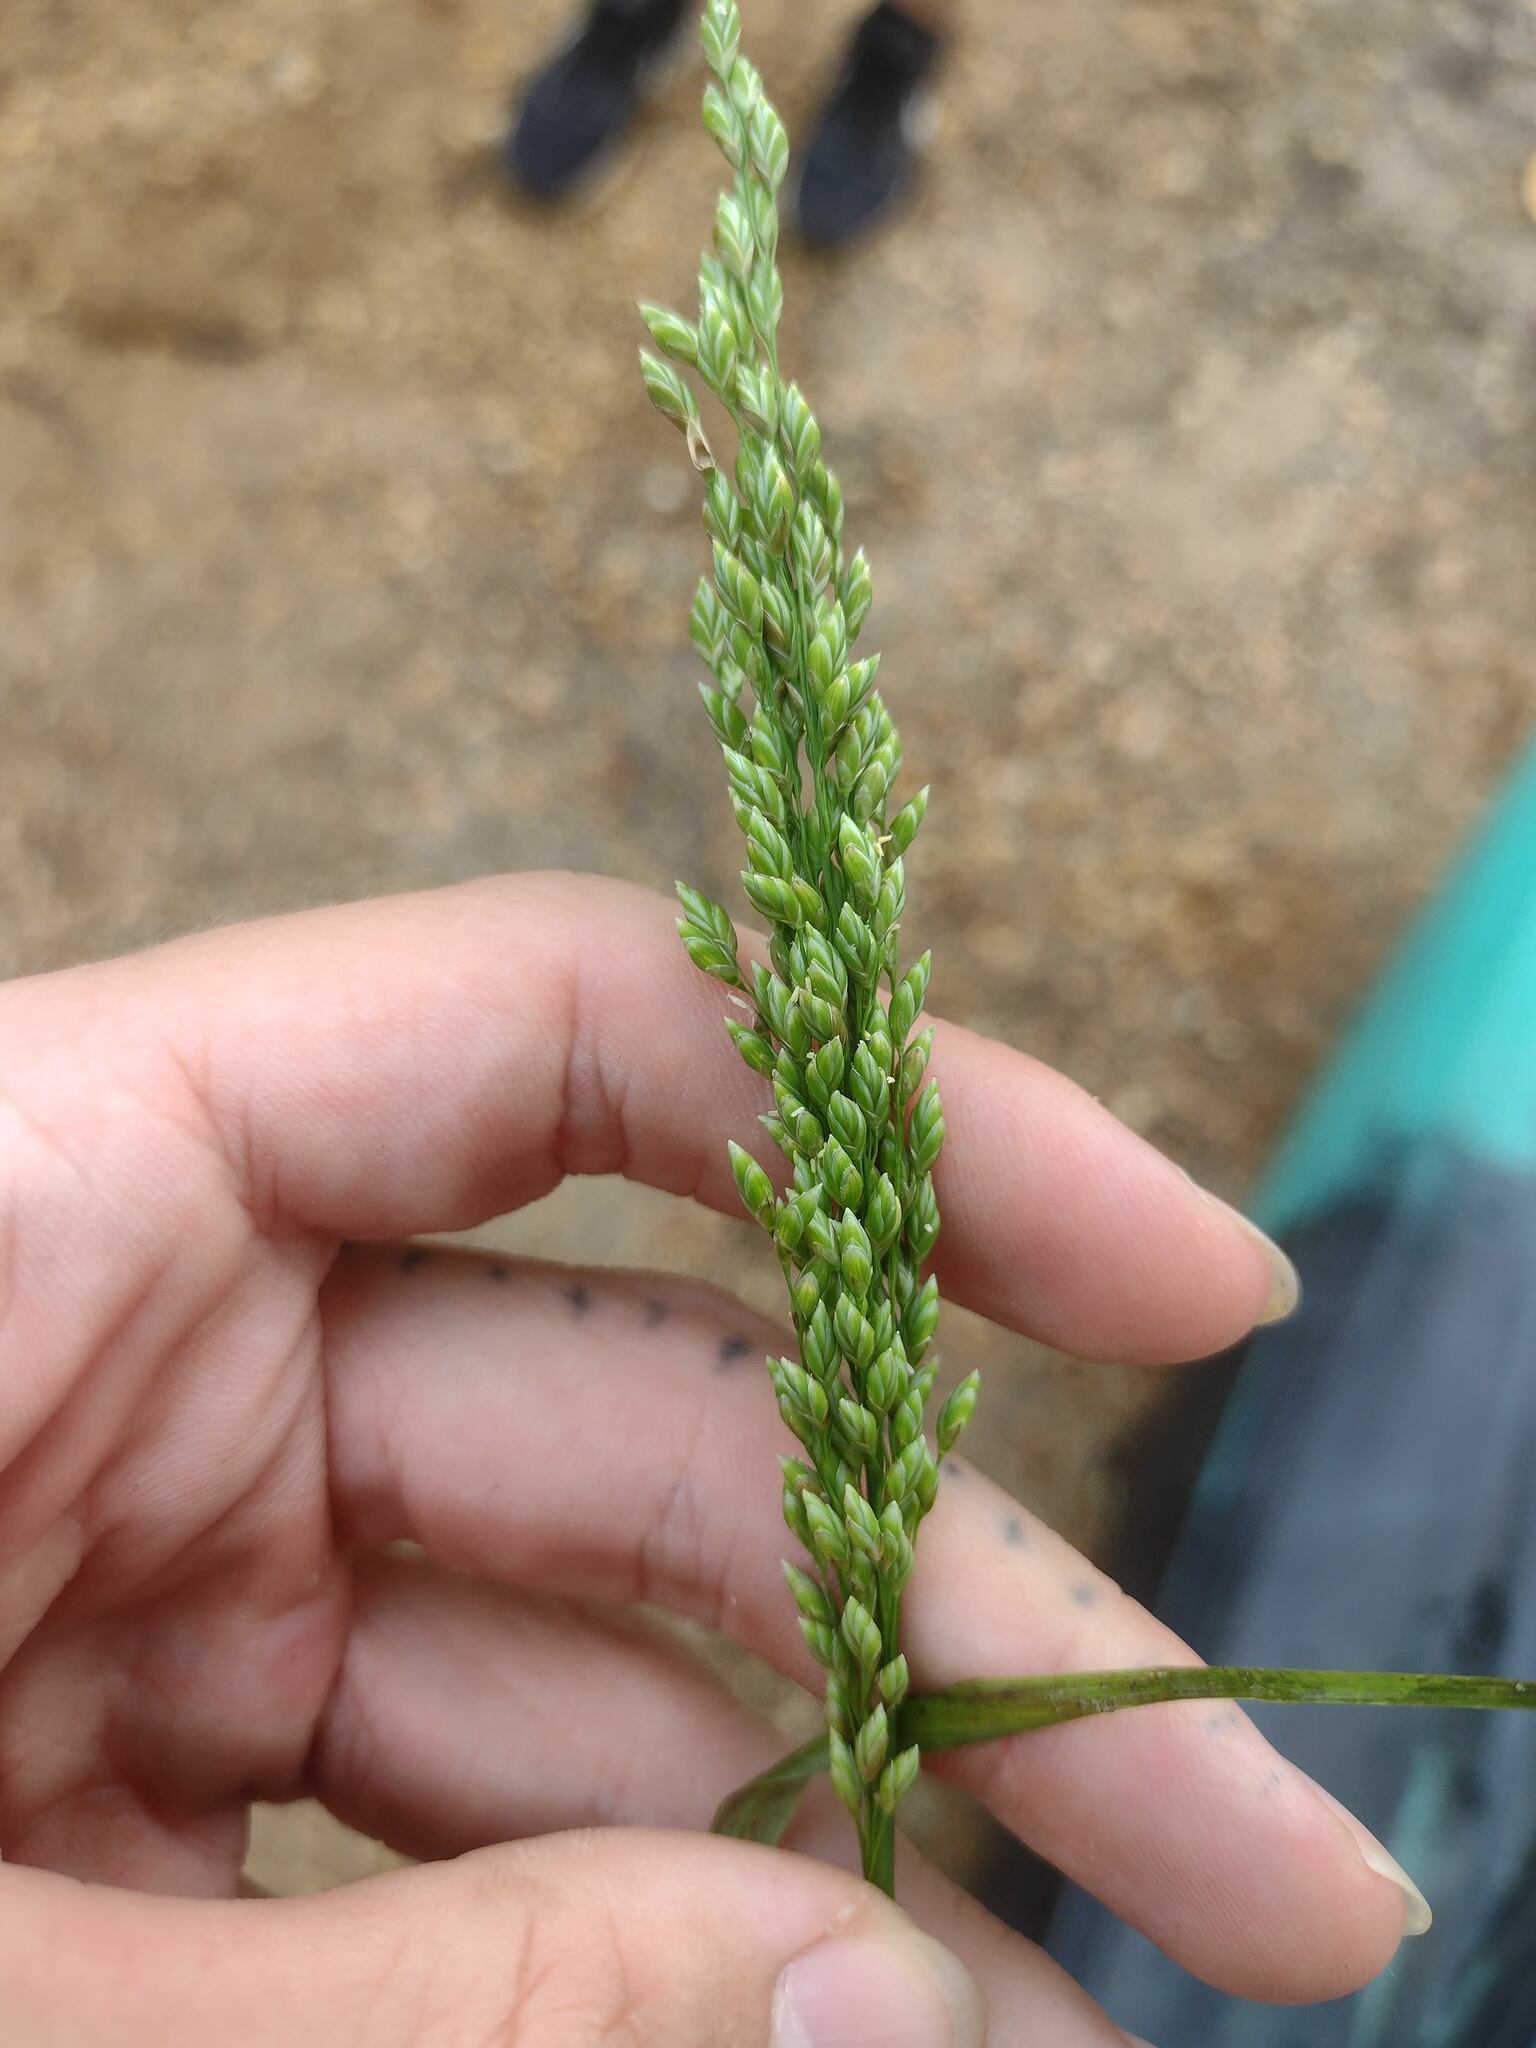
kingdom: Plantae
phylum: Tracheophyta
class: Liliopsida
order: Poales
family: Poaceae
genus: Glyceria
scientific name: Glyceria obtusa
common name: Atlantic mannagrass
